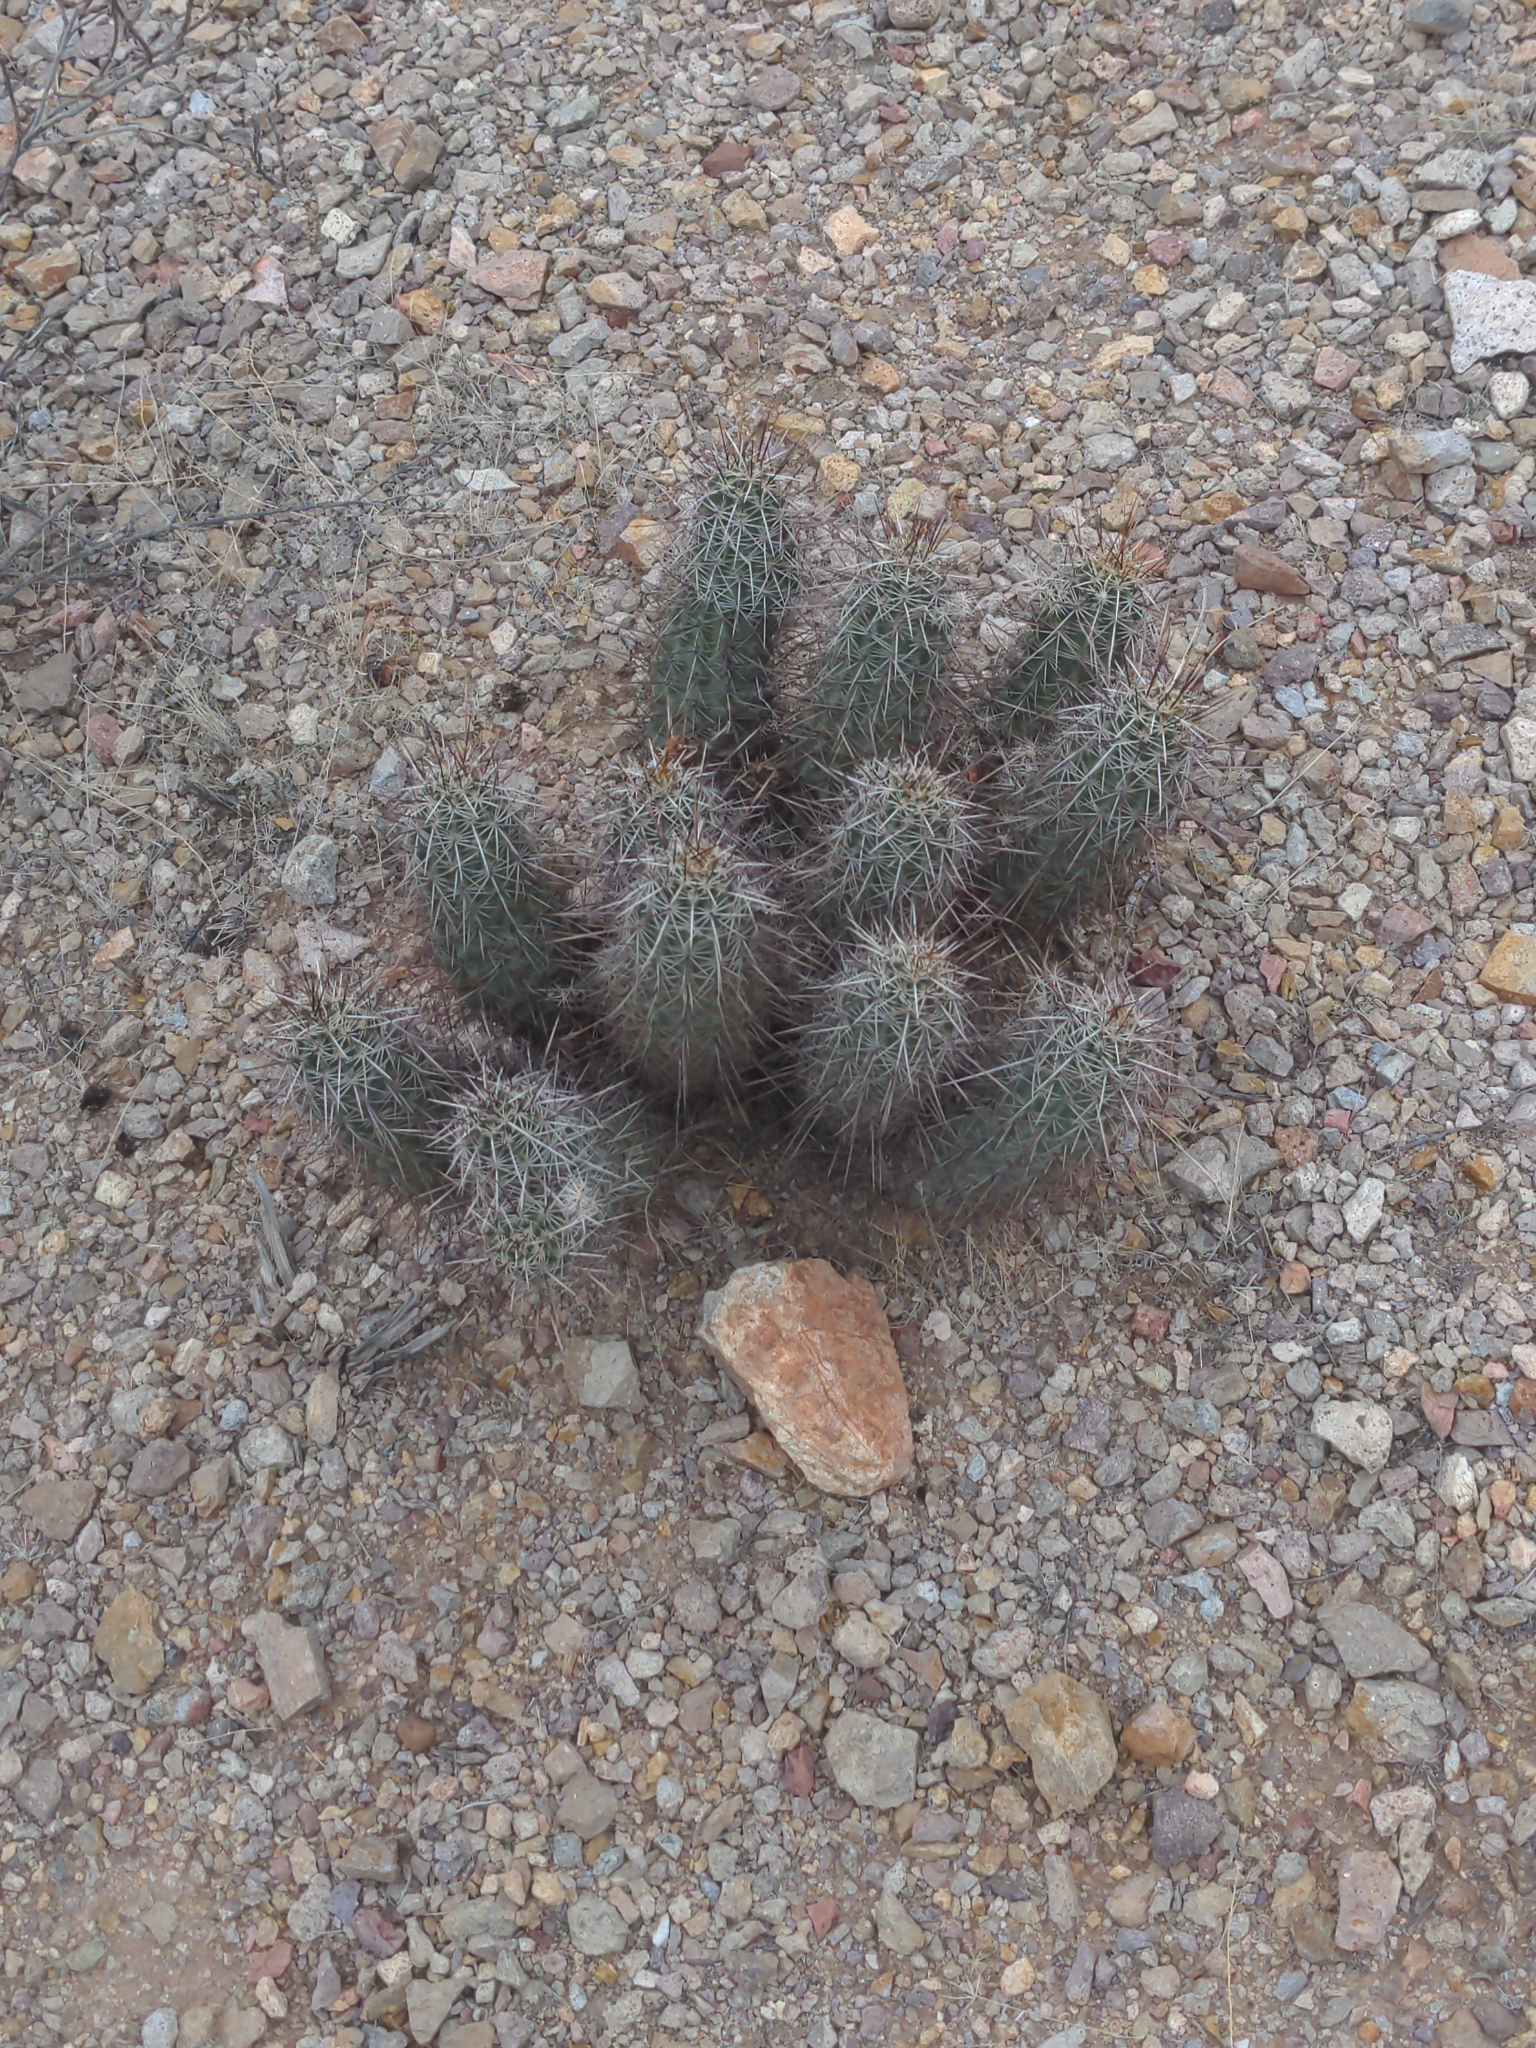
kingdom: Plantae
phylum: Tracheophyta
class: Magnoliopsida
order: Caryophyllales
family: Cactaceae
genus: Echinocereus
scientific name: Echinocereus fasciculatus
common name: Bundle hedgehog
